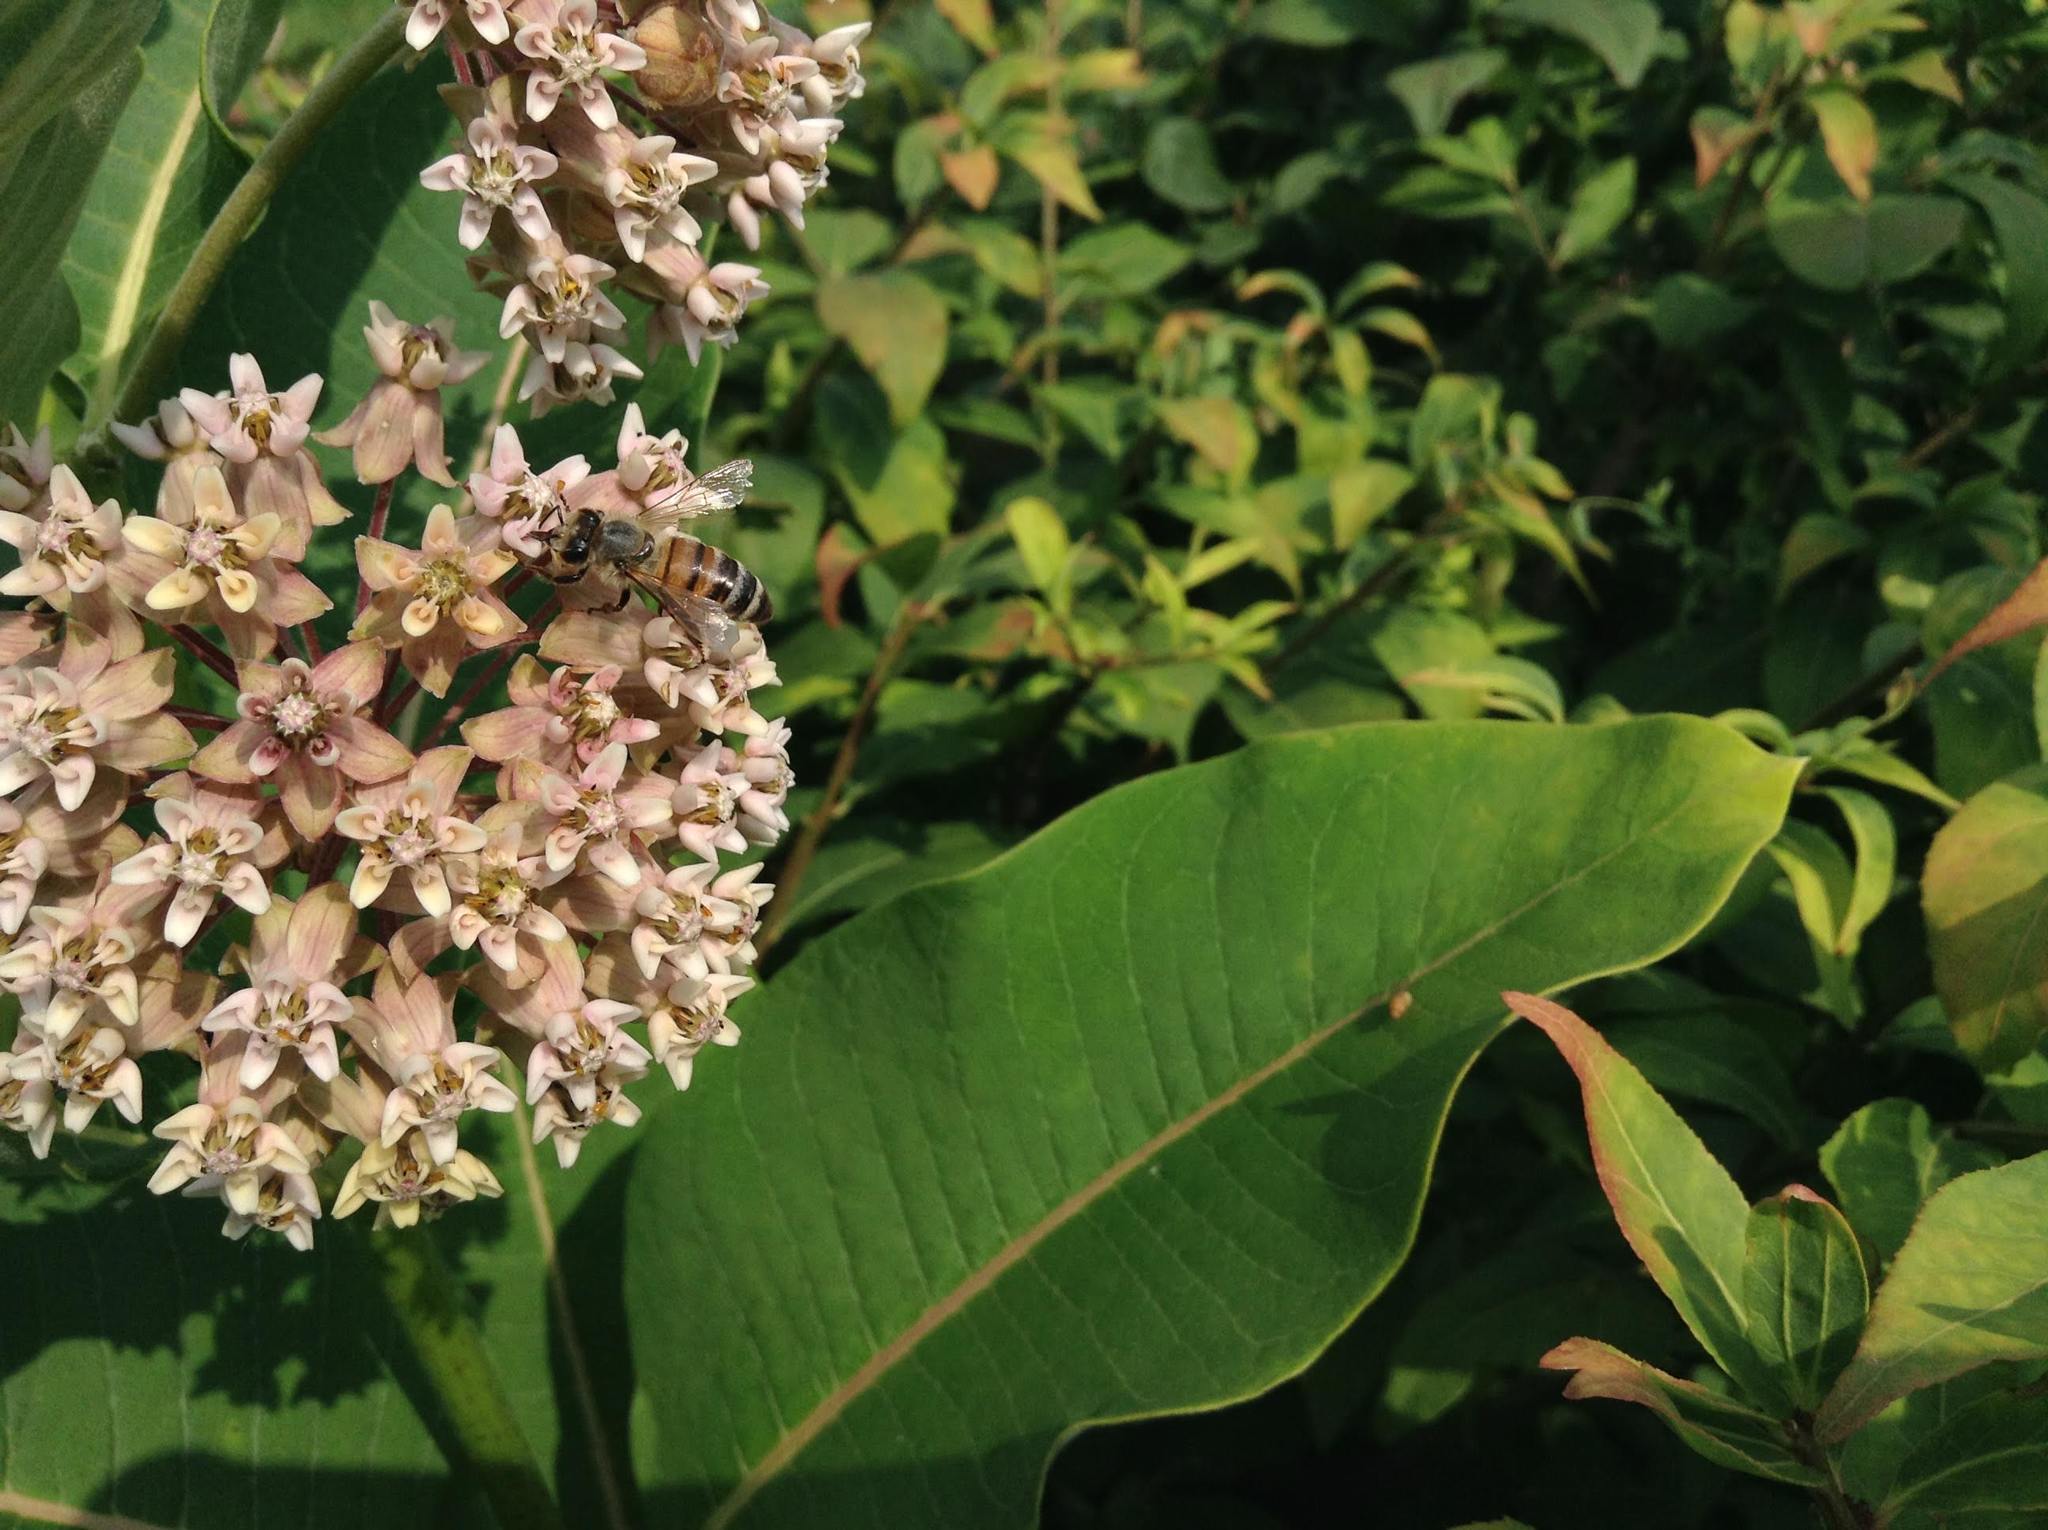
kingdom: Plantae
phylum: Tracheophyta
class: Magnoliopsida
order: Gentianales
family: Apocynaceae
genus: Asclepias
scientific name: Asclepias syriaca
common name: Common milkweed
